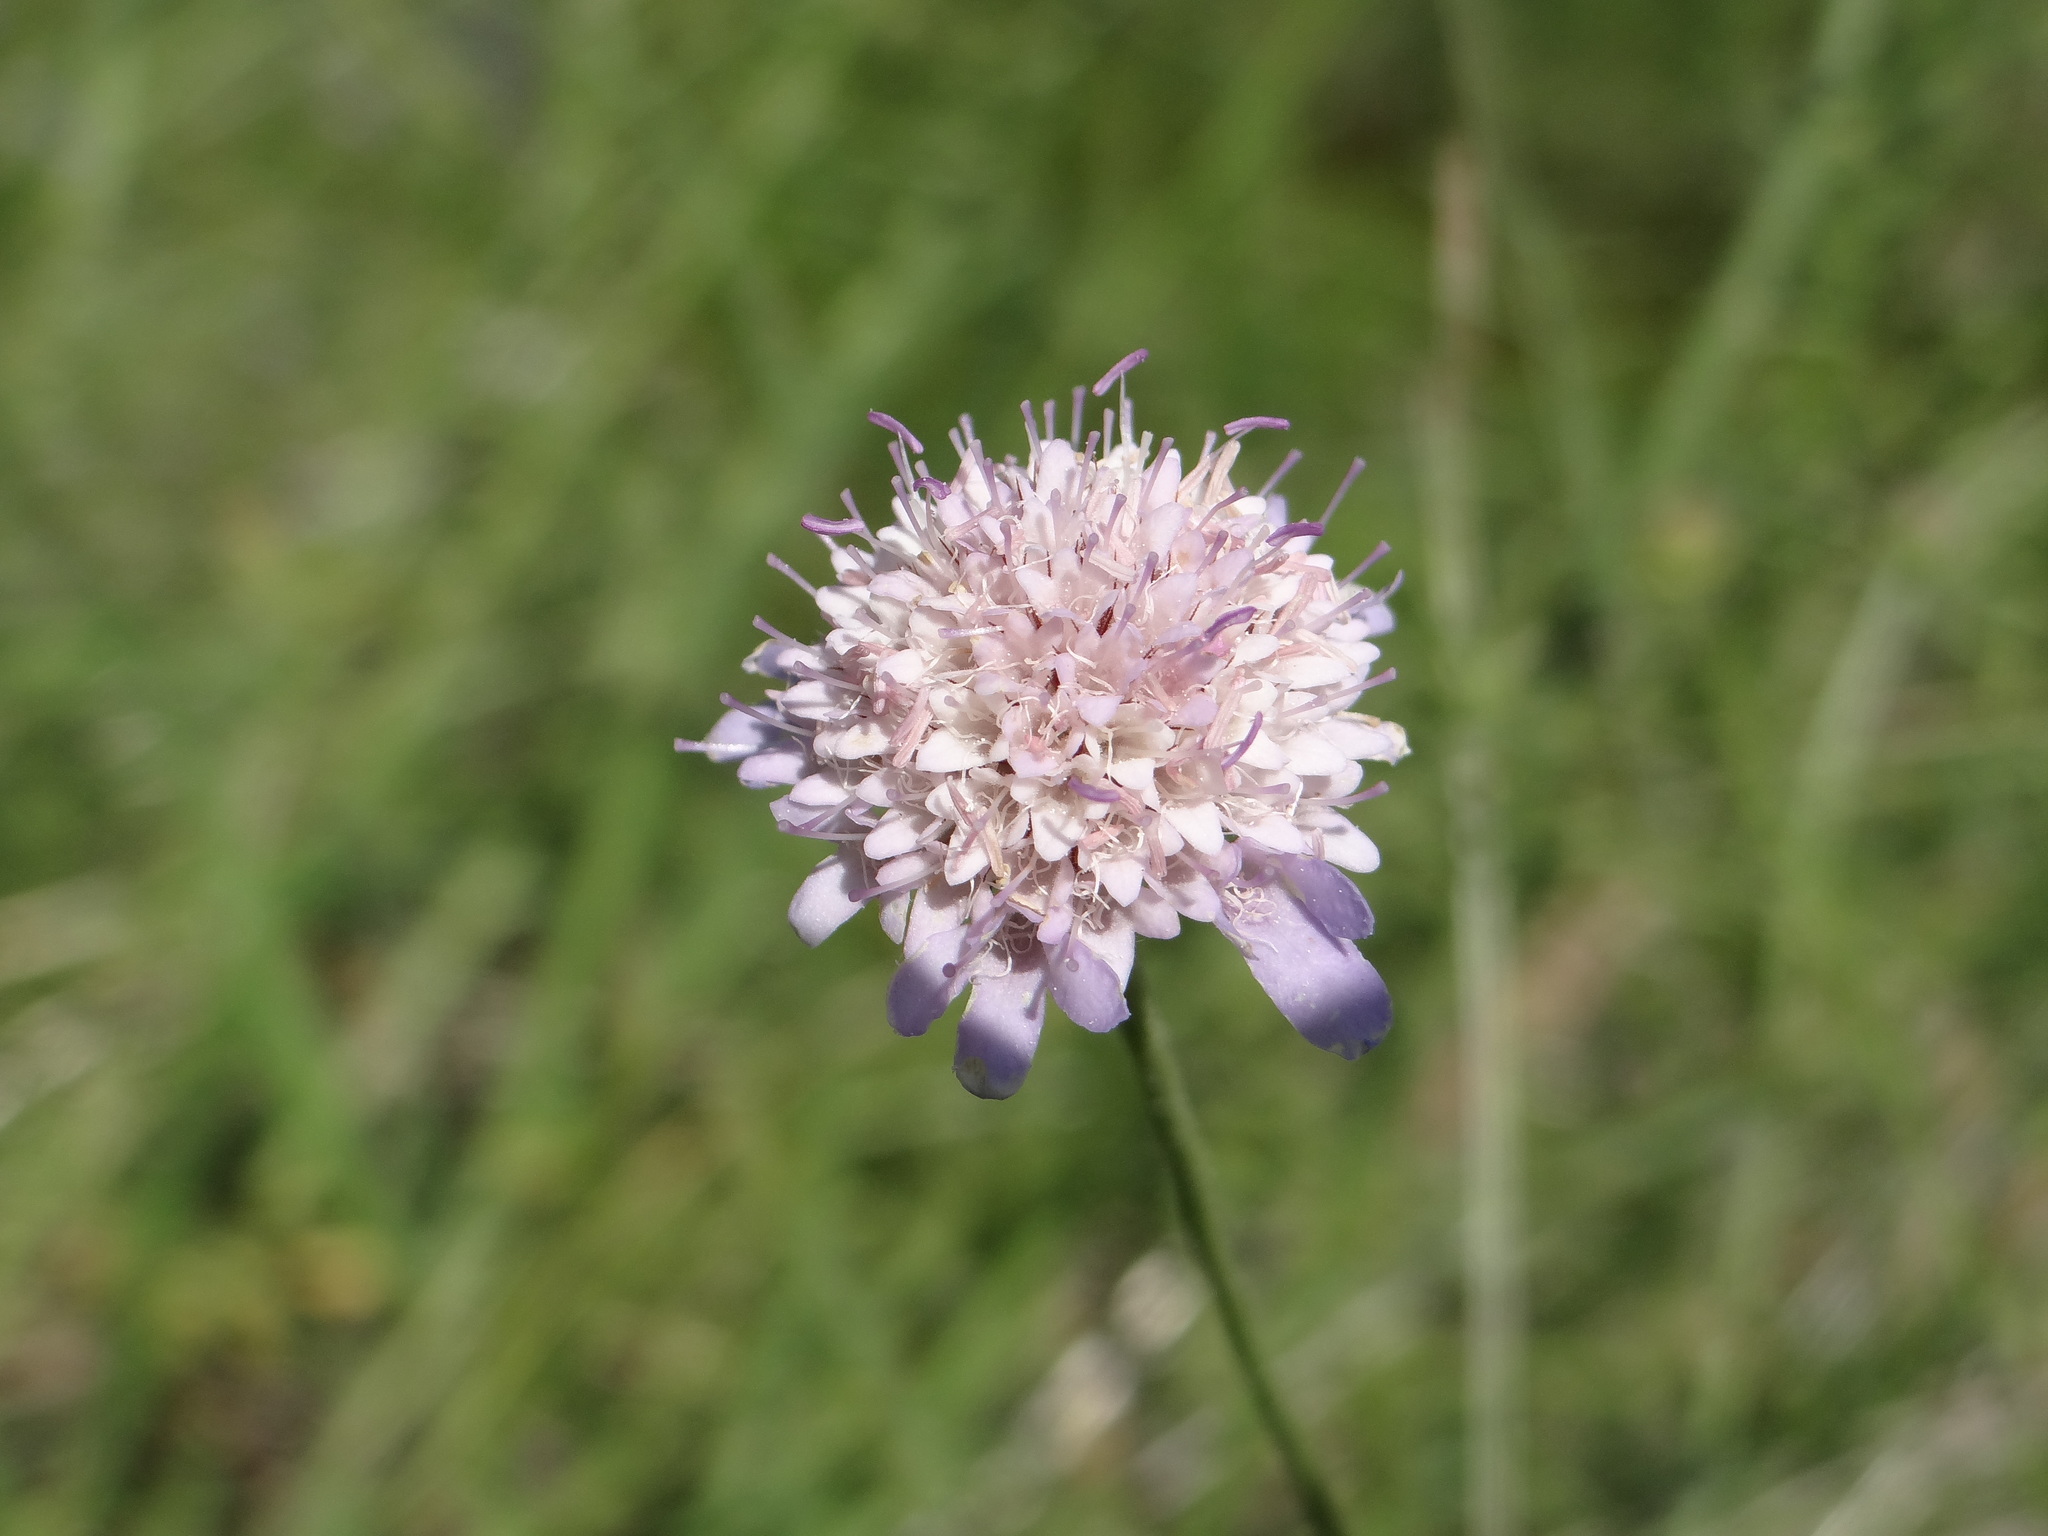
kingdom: Plantae
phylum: Tracheophyta
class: Magnoliopsida
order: Dipsacales
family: Caprifoliaceae
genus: Sixalix
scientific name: Sixalix atropurpurea
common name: Sweet scabious
